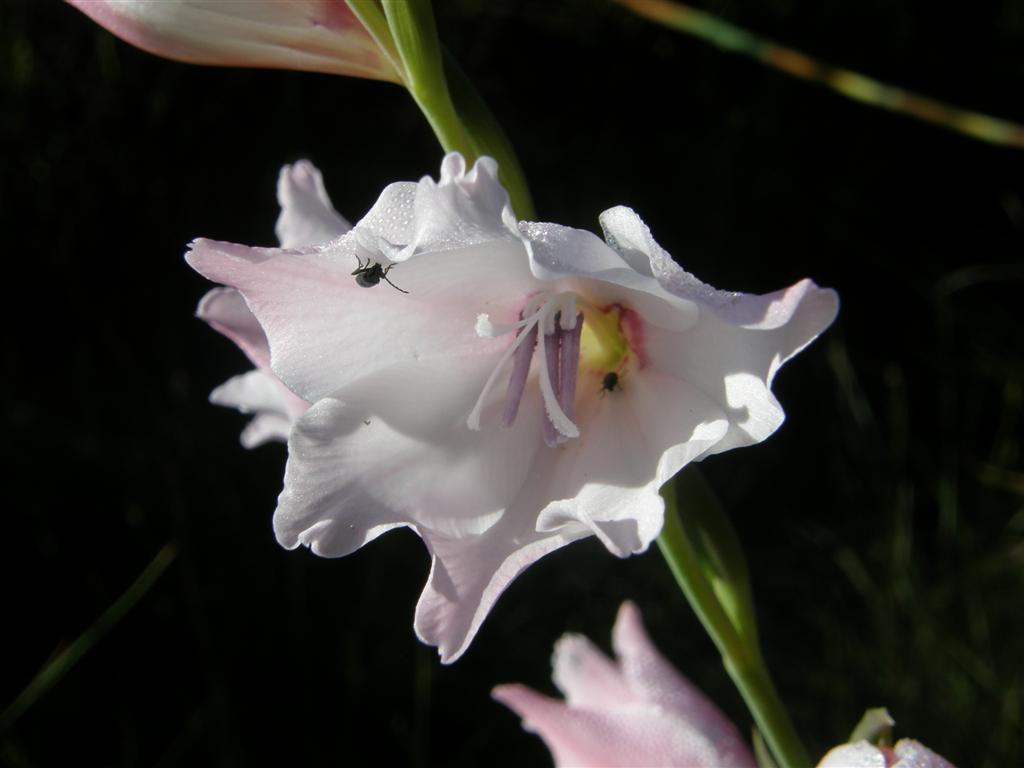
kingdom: Plantae
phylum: Tracheophyta
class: Liliopsida
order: Asparagales
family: Iridaceae
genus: Gladiolus
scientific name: Gladiolus carneus
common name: Painted-lady
